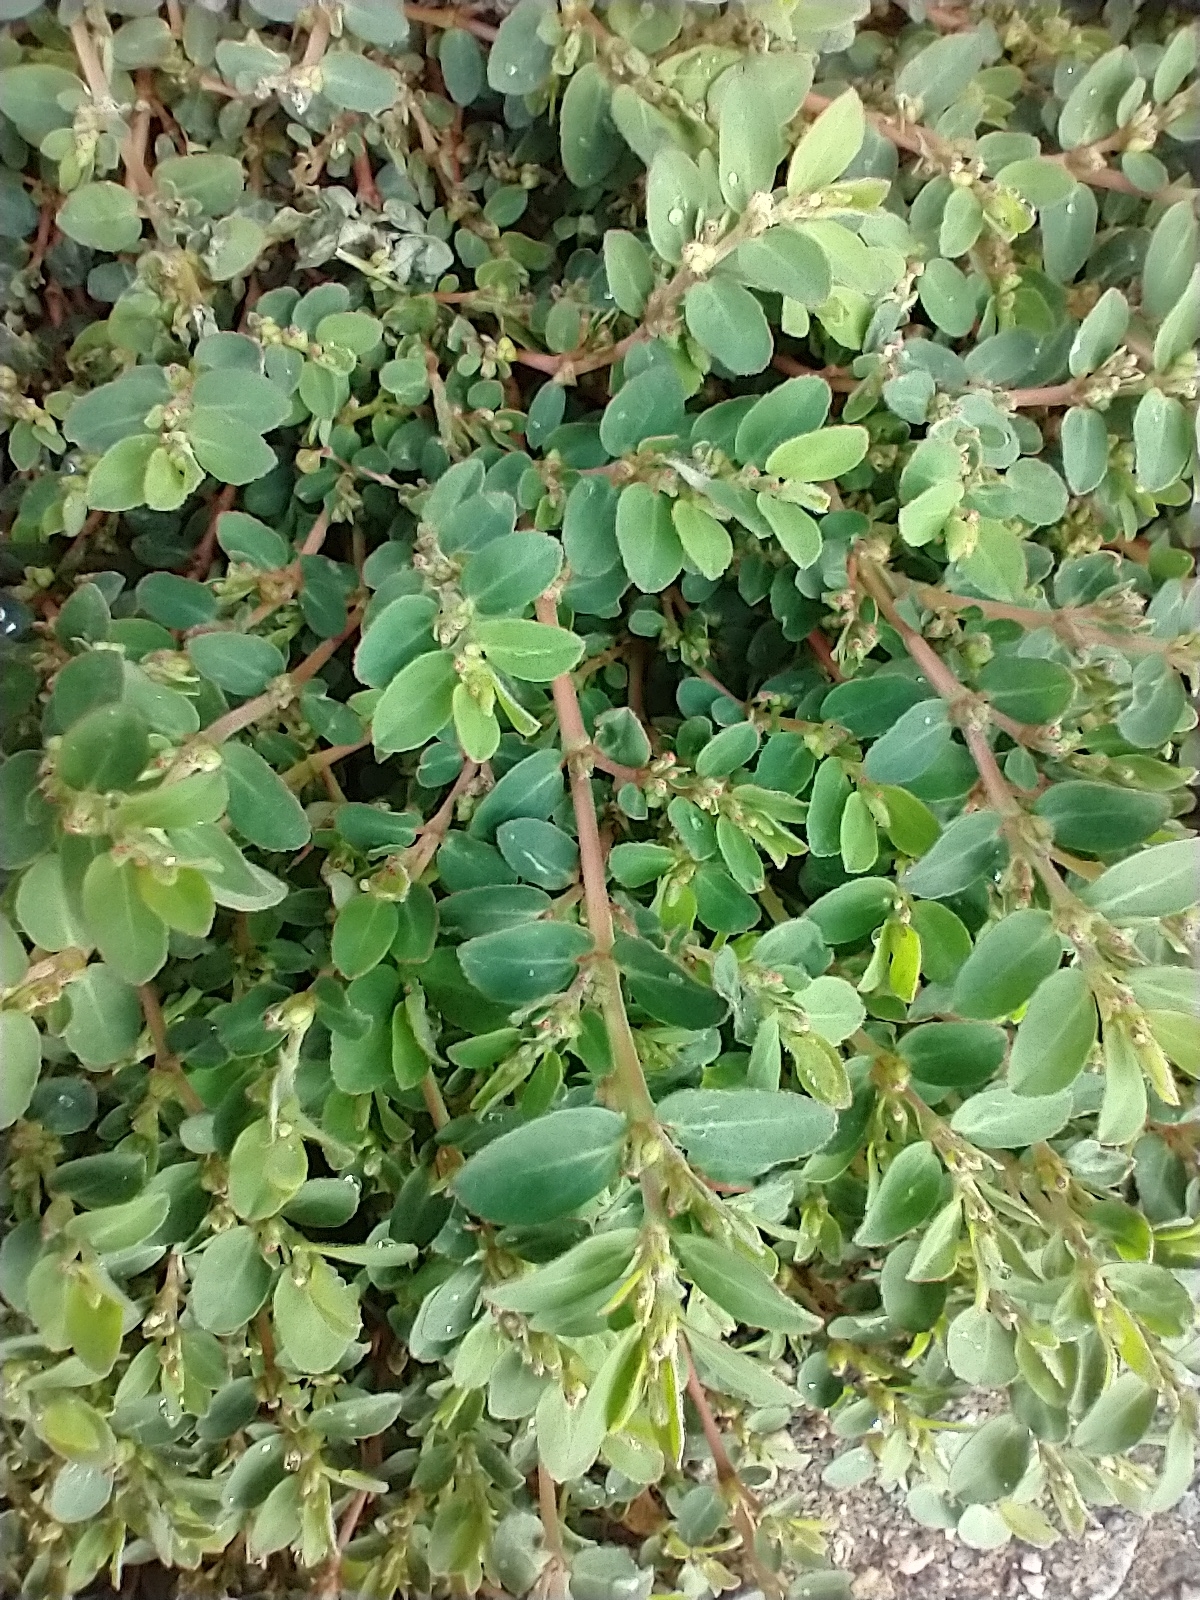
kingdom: Plantae
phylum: Tracheophyta
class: Magnoliopsida
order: Malpighiales
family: Euphorbiaceae
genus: Euphorbia
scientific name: Euphorbia prostrata
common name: Prostrate sandmat
